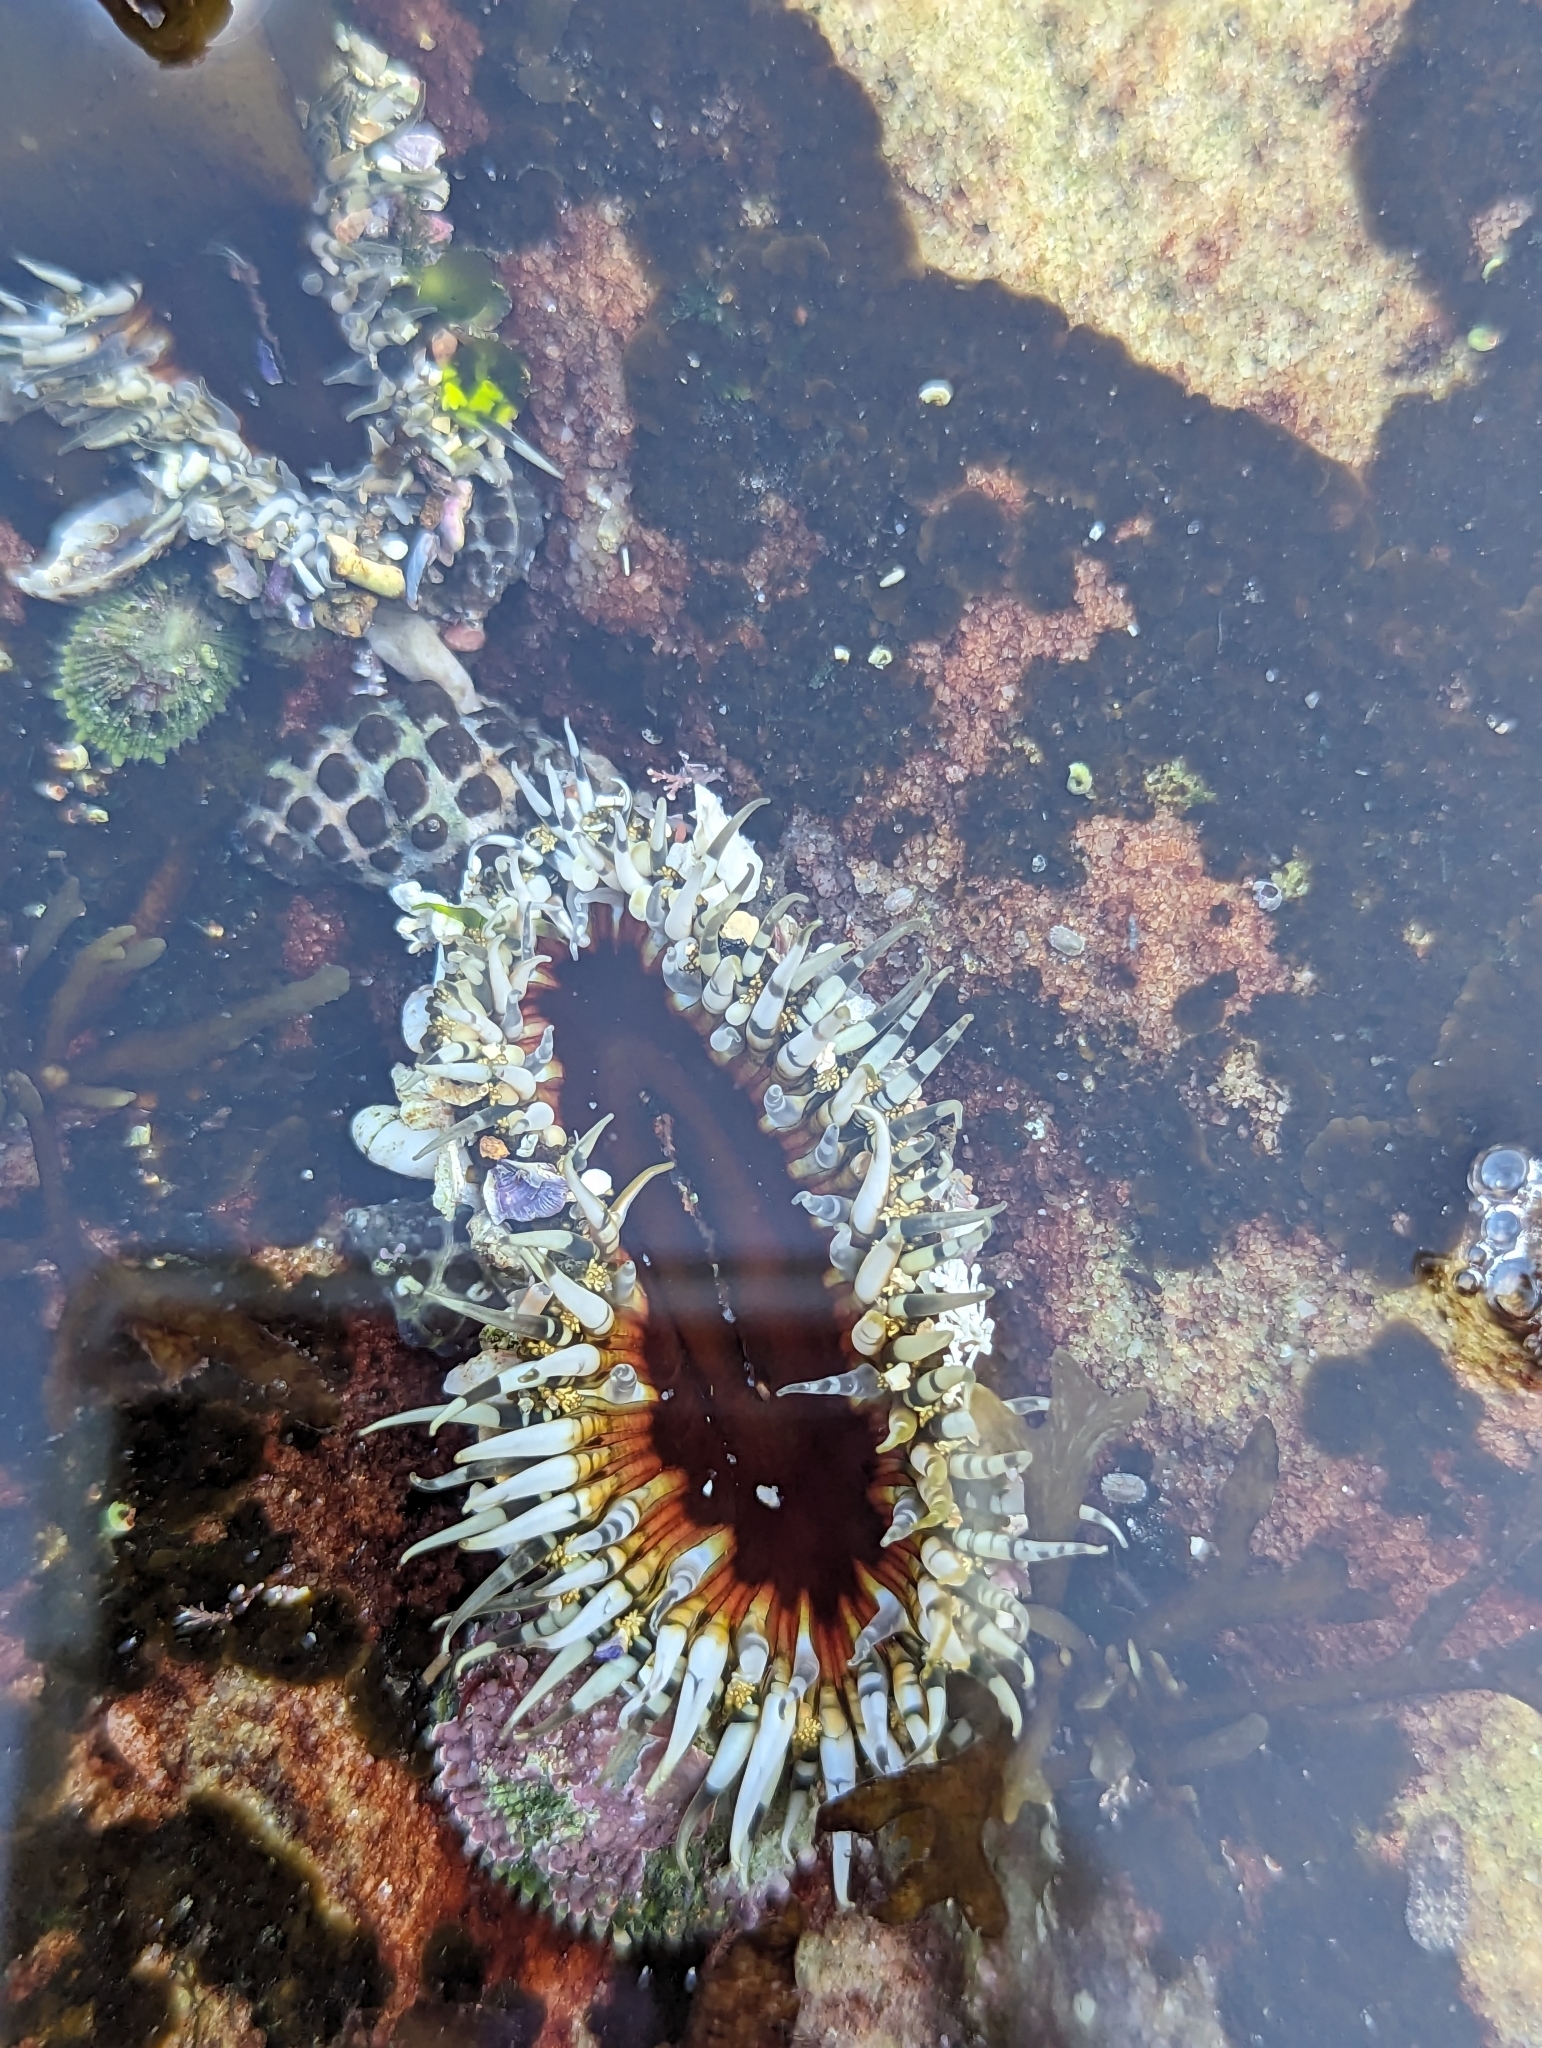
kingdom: Animalia
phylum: Cnidaria
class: Anthozoa
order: Actiniaria
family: Actiniidae
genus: Oulactis
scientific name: Oulactis muscosa
